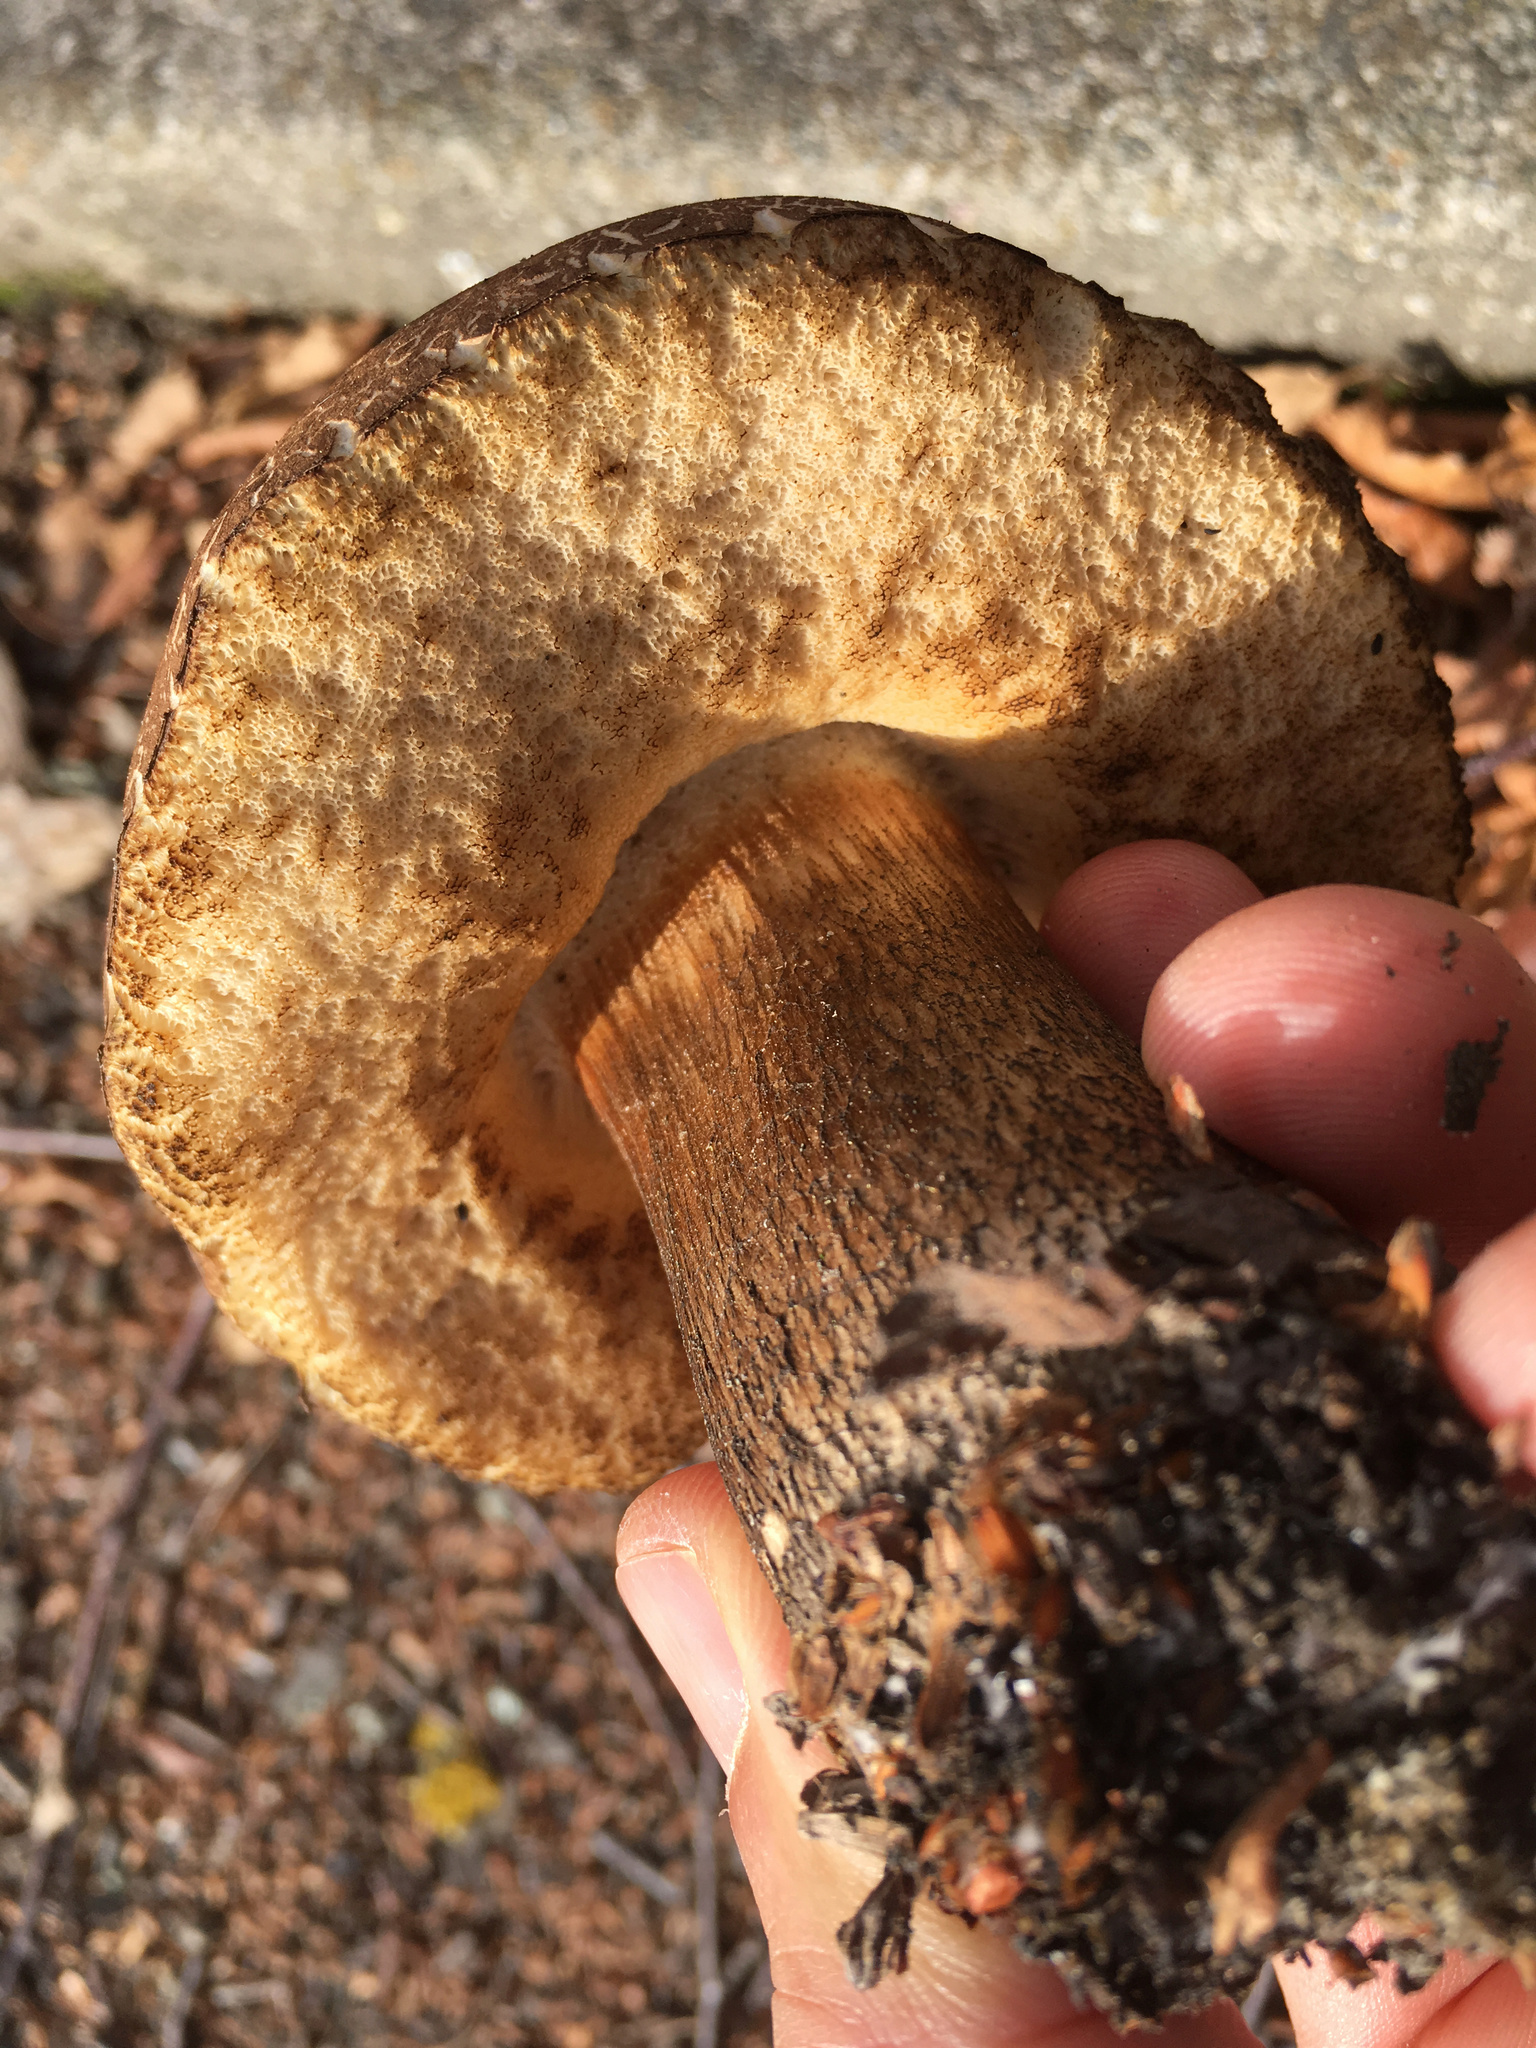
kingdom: Fungi
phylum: Basidiomycota
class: Agaricomycetes
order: Boletales
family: Boletaceae
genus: Leccinum
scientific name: Leccinum scabrum
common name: Blushing bolete
